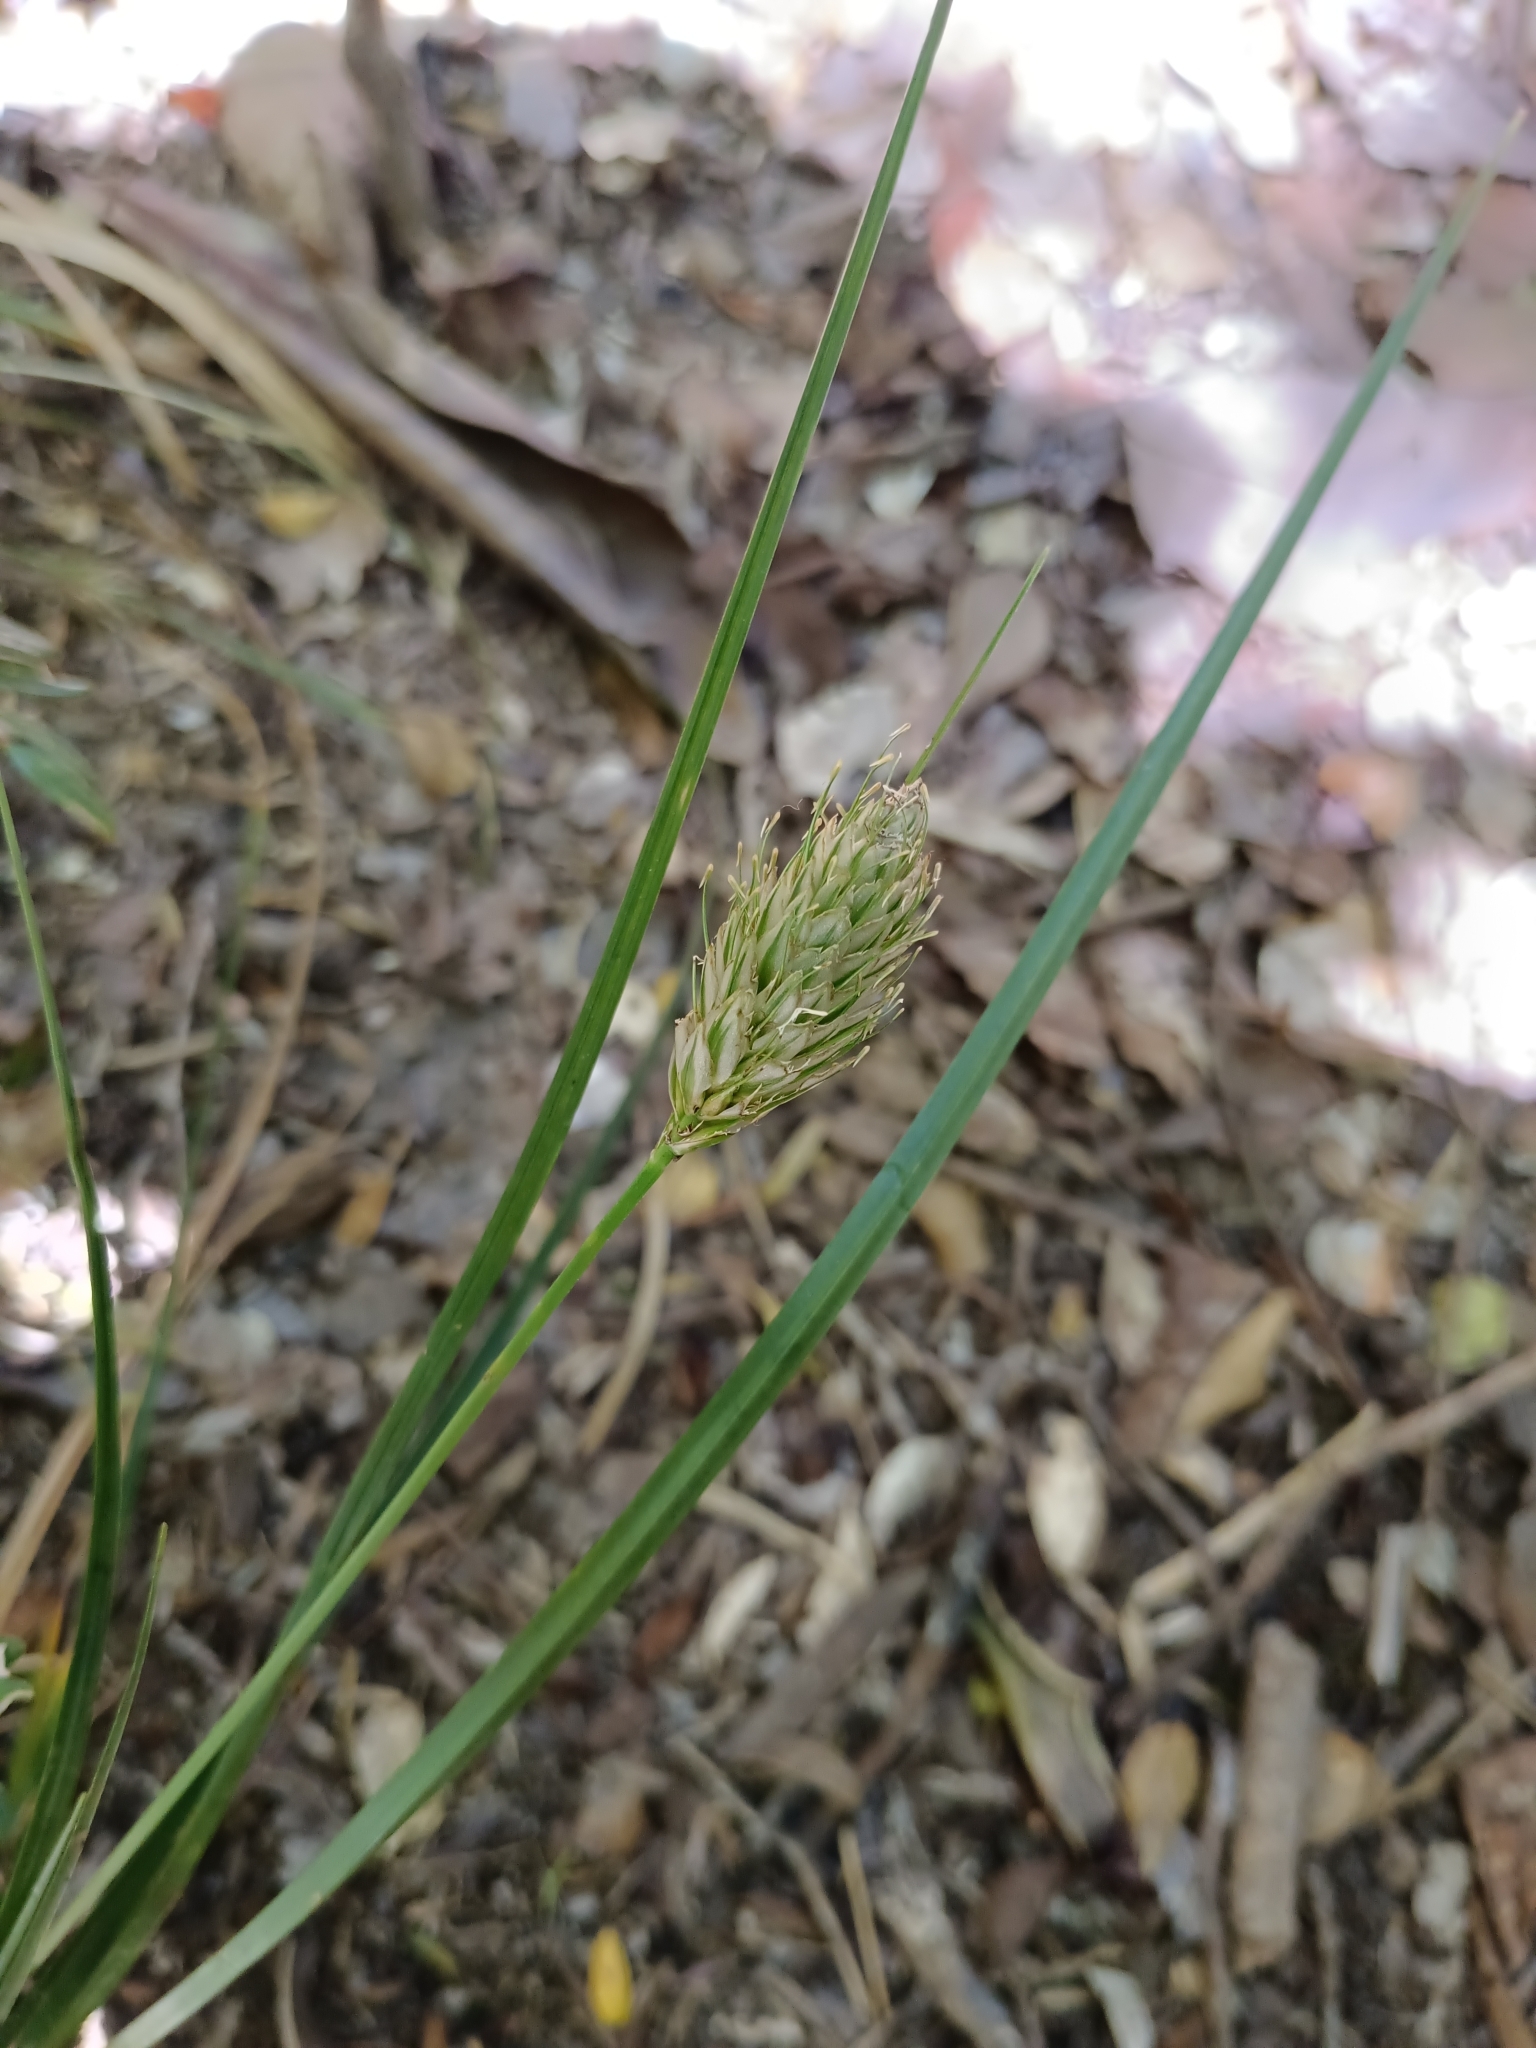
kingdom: Plantae
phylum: Tracheophyta
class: Liliopsida
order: Poales
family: Cyperaceae
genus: Carex
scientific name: Carex dolichophylla
